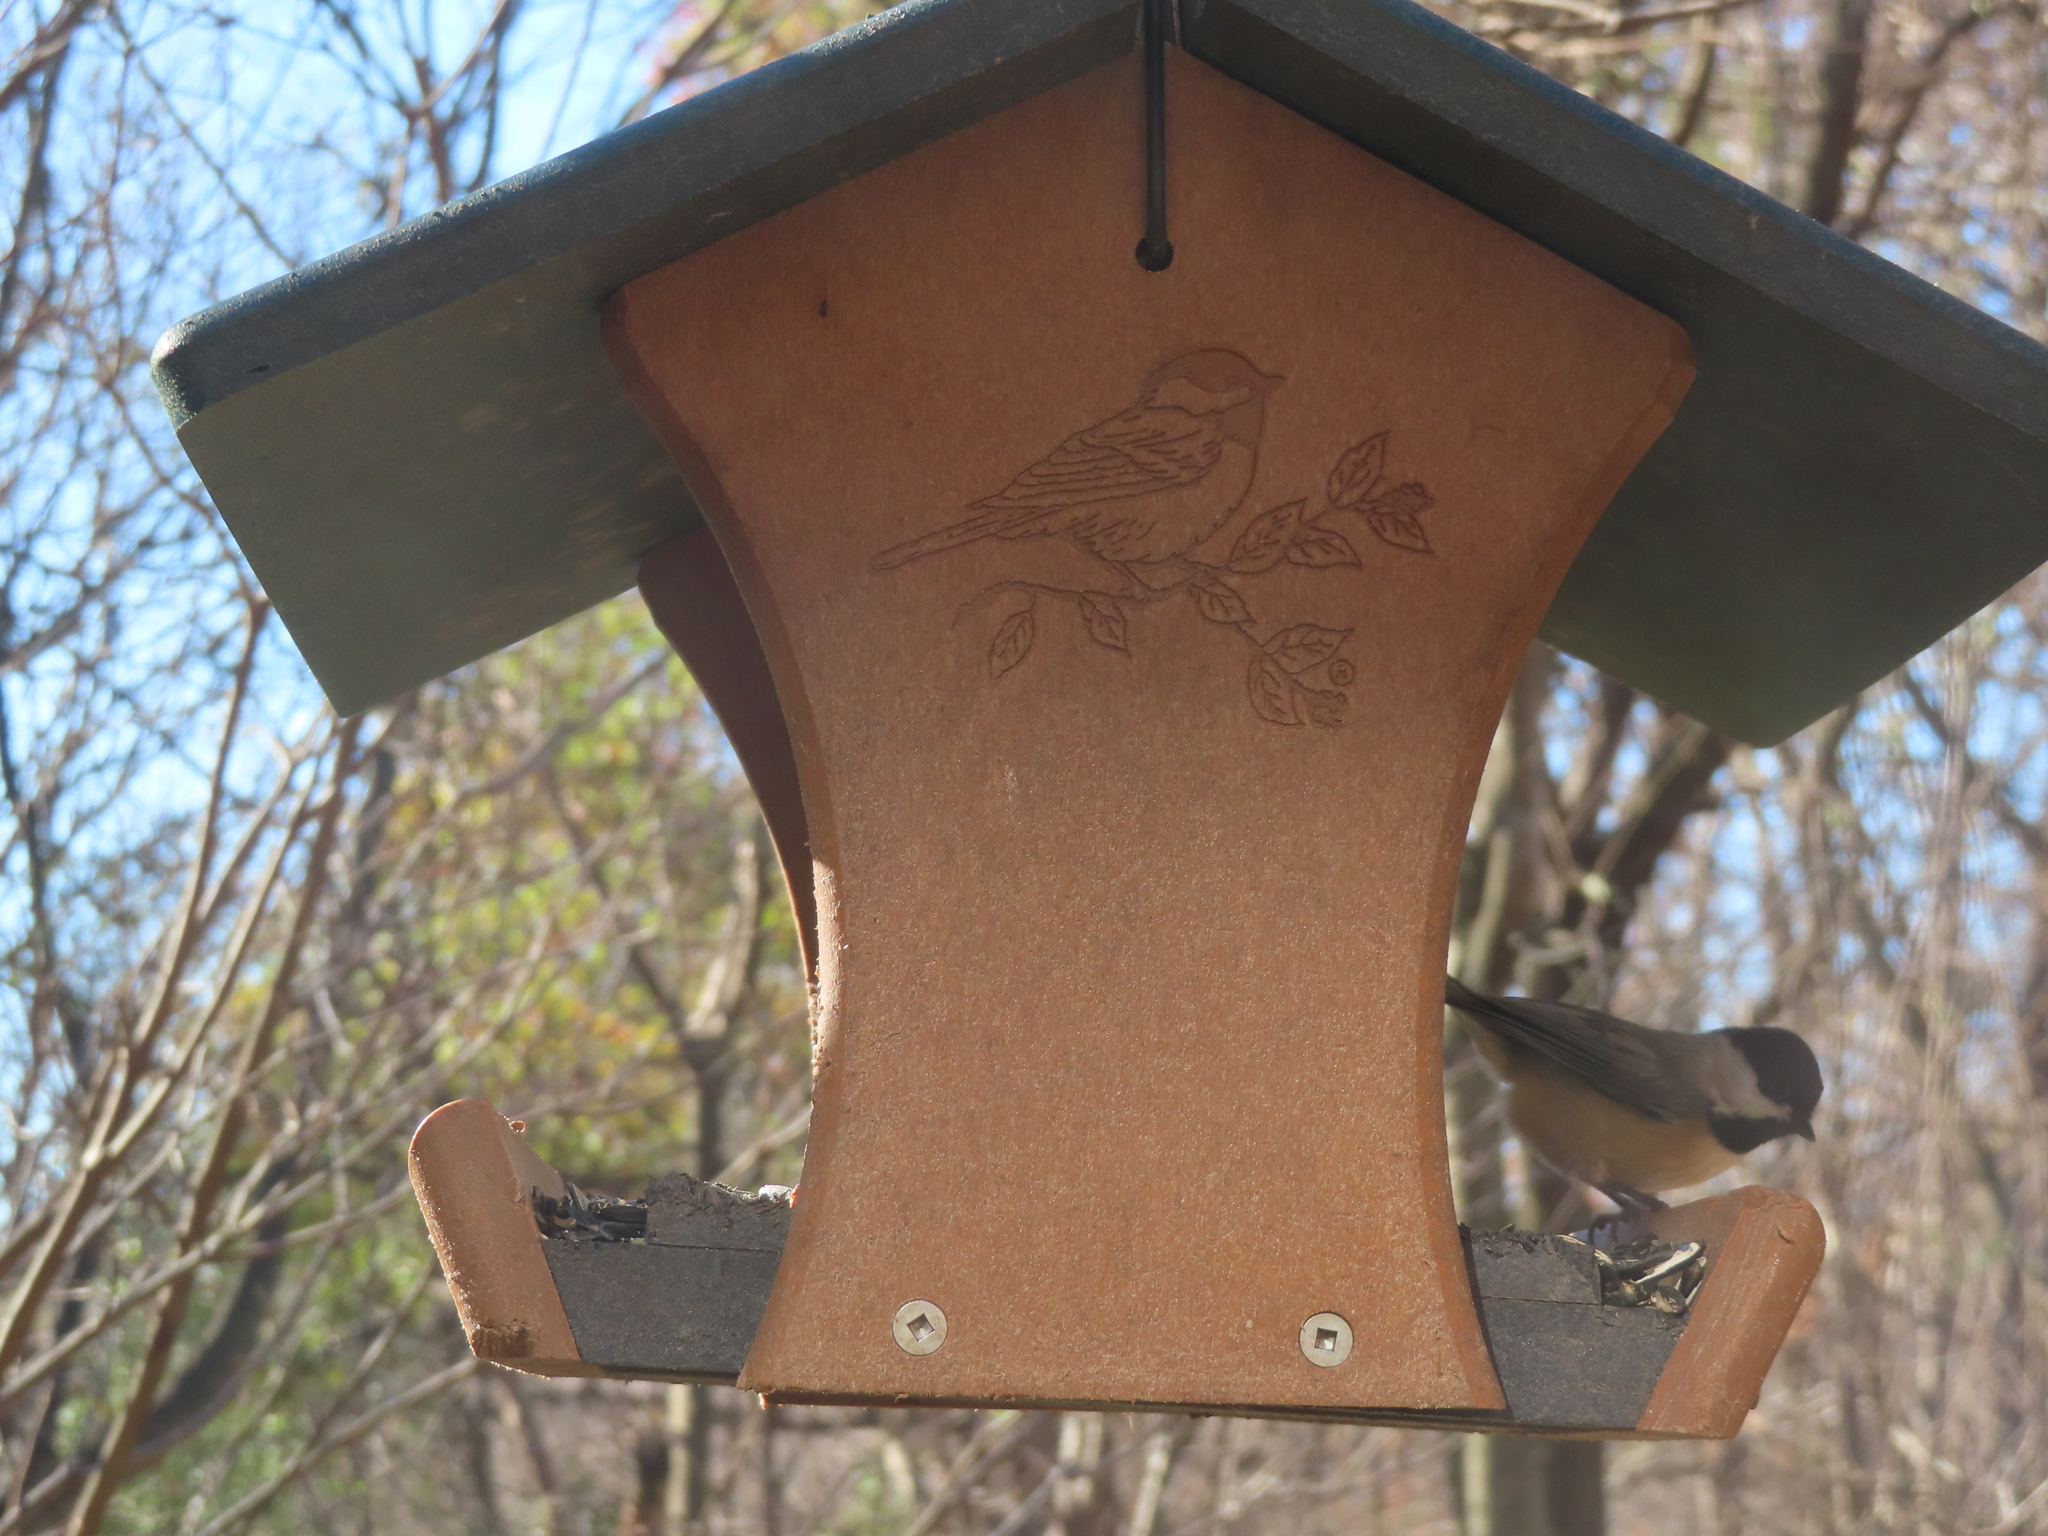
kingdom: Animalia
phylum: Chordata
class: Aves
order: Passeriformes
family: Paridae
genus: Poecile
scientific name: Poecile carolinensis
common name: Carolina chickadee
